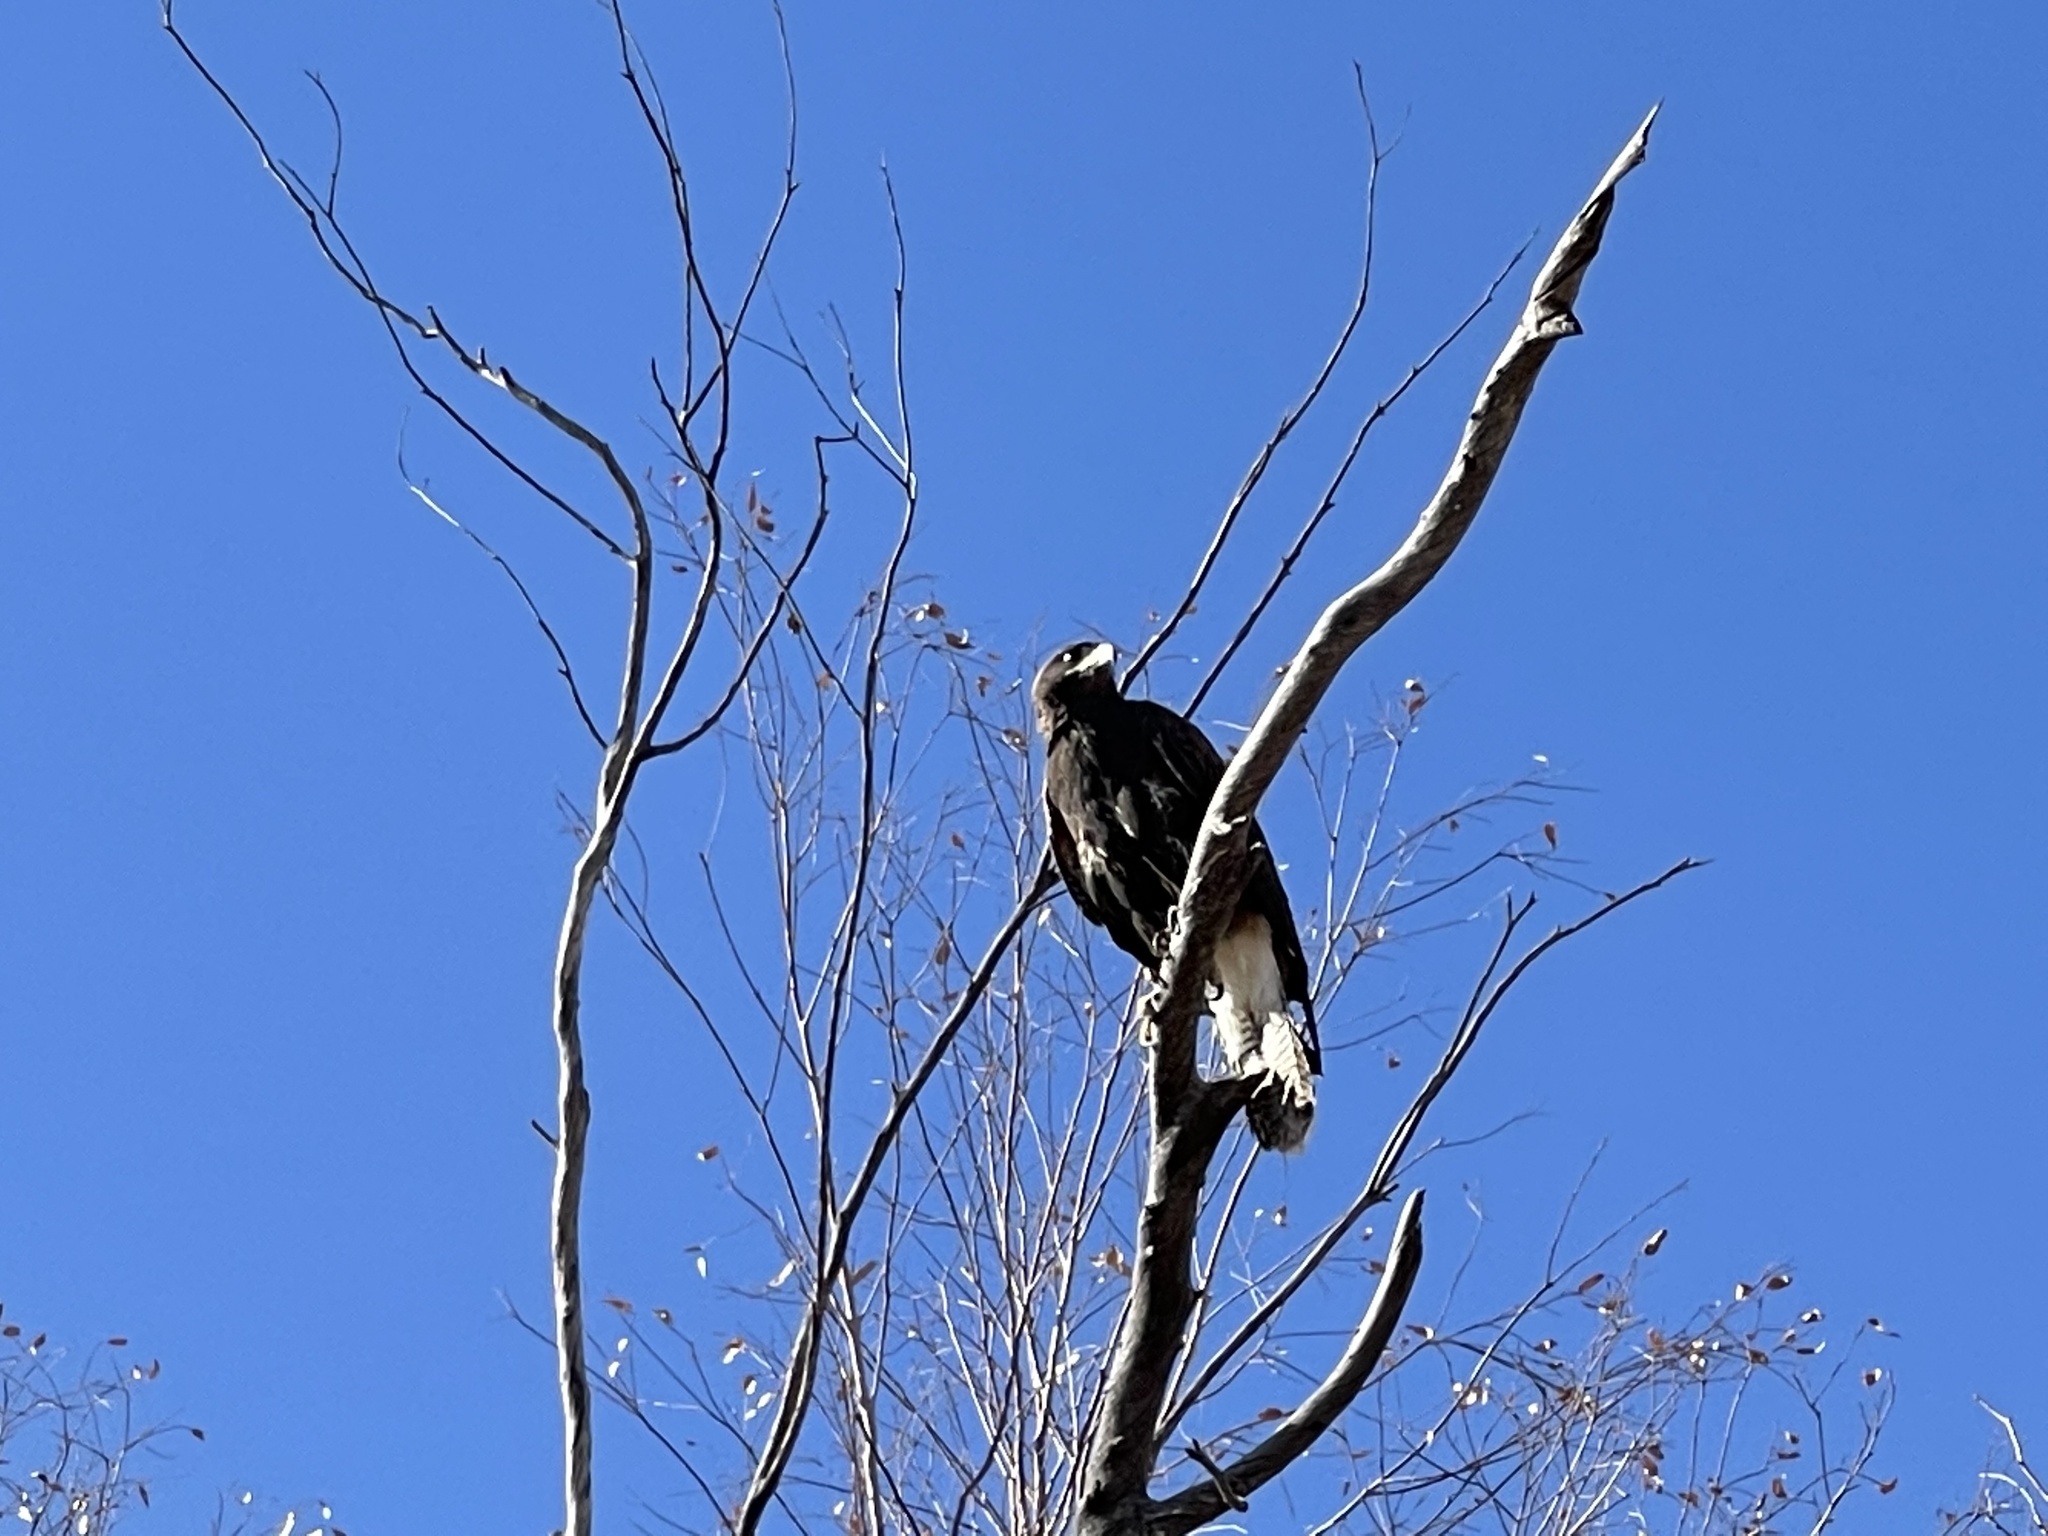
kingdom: Animalia
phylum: Chordata
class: Aves
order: Accipitriformes
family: Accipitridae
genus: Parabuteo
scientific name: Parabuteo unicinctus
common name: Harris's hawk
